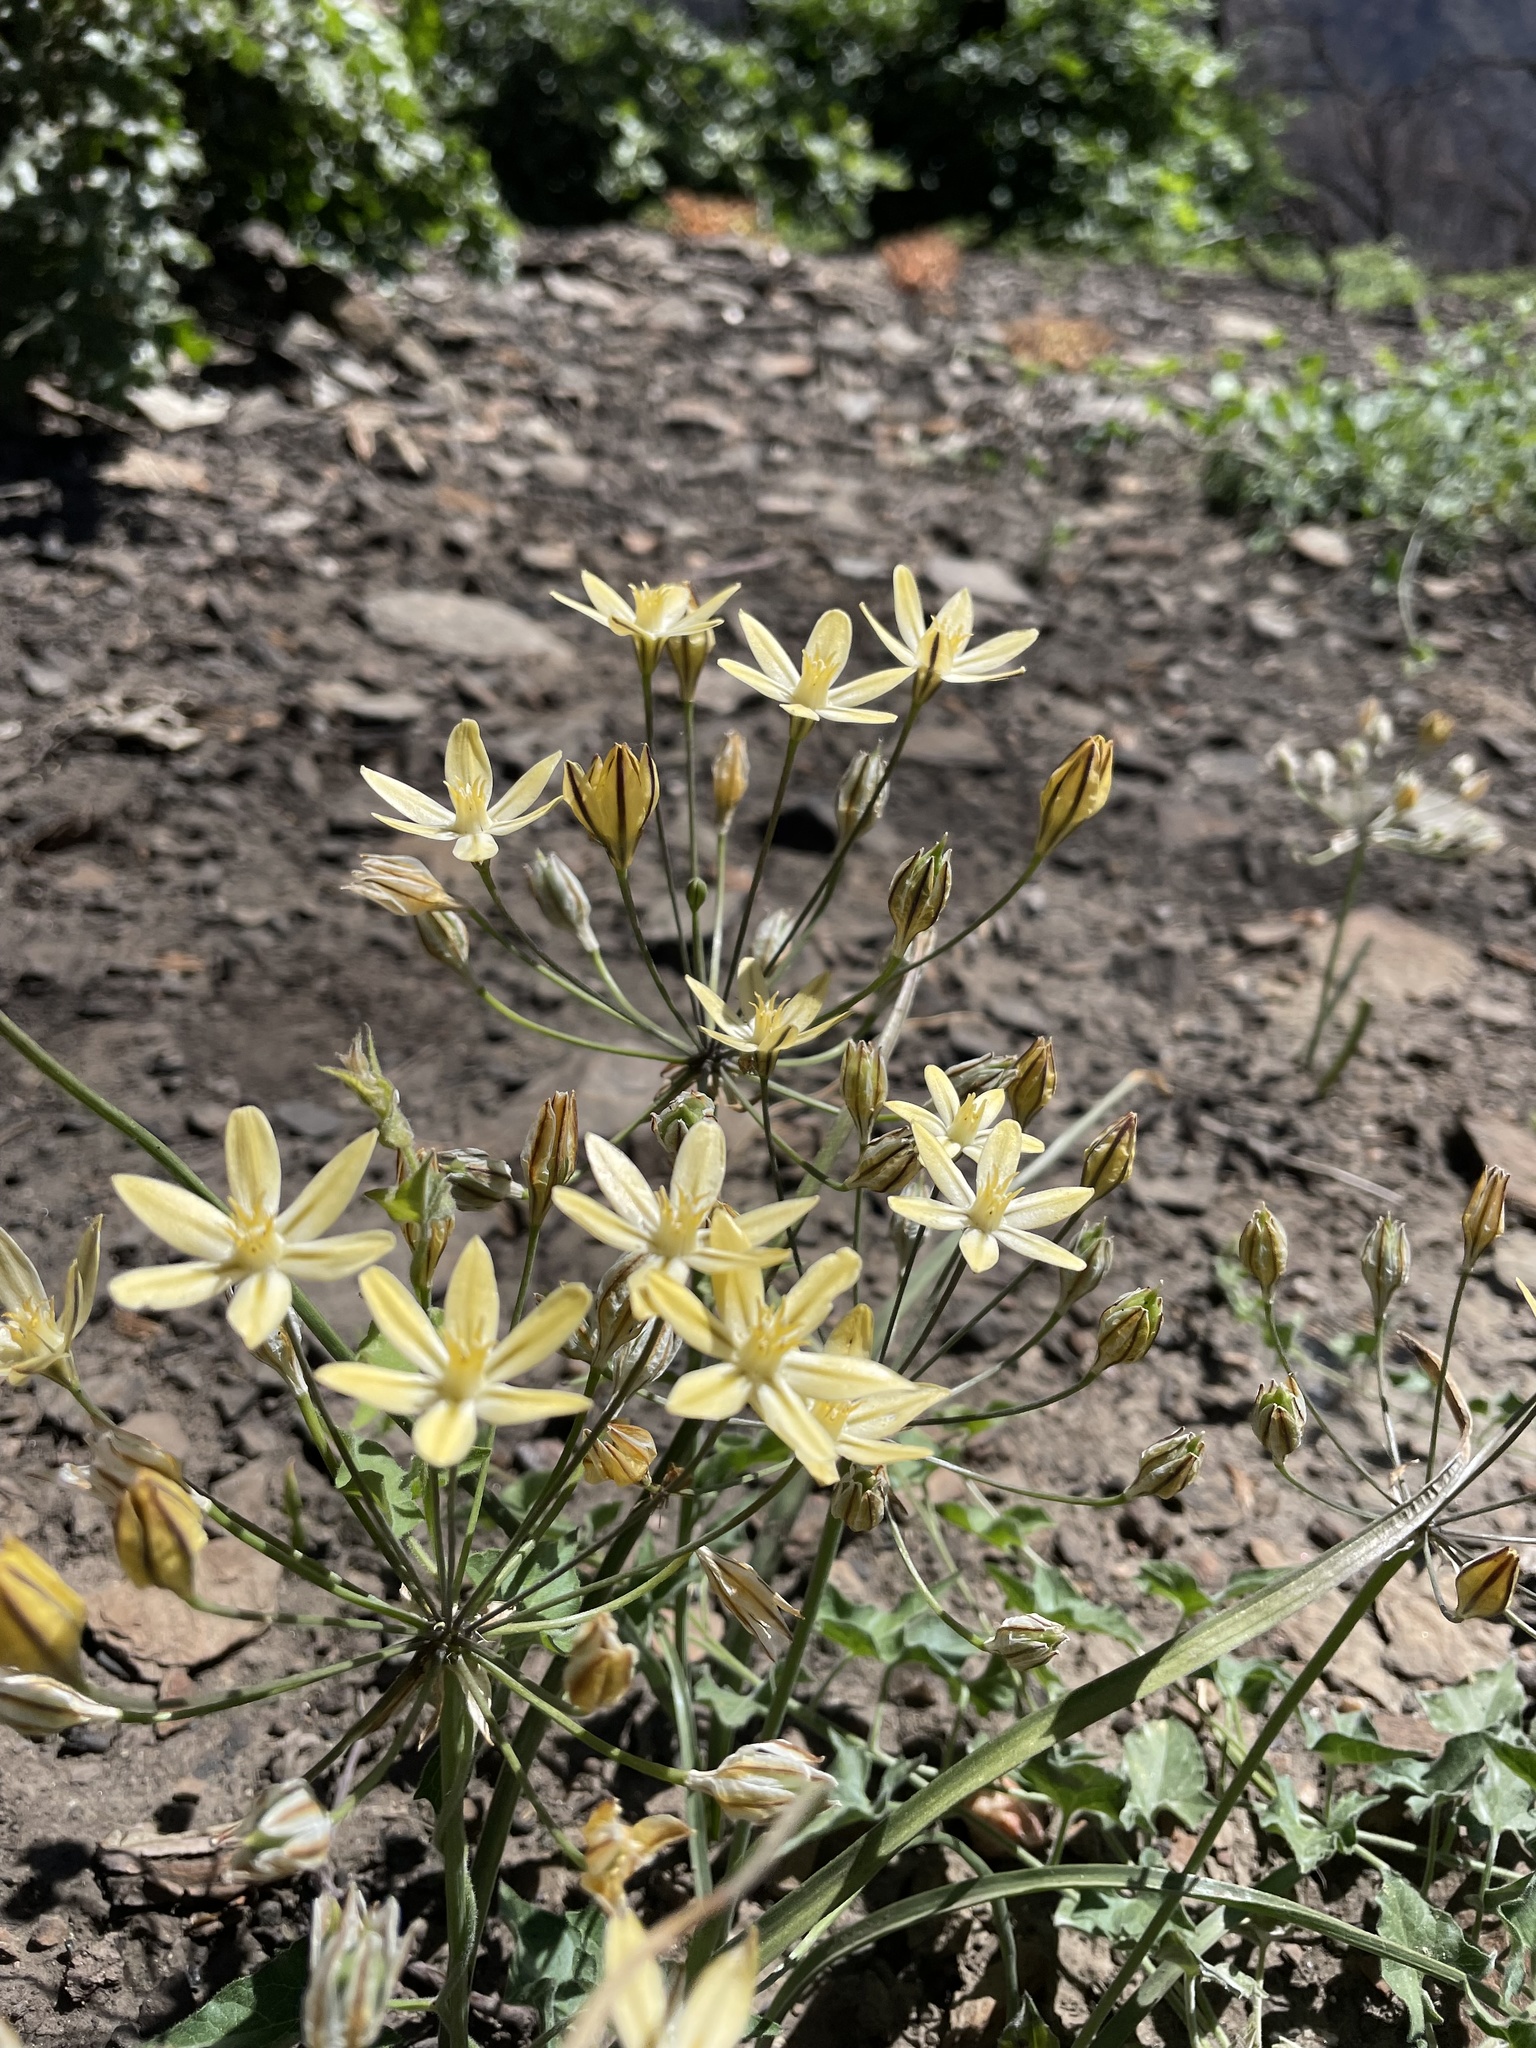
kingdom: Plantae
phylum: Tracheophyta
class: Liliopsida
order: Asparagales
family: Asparagaceae
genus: Triteleia
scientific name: Triteleia ixioides
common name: Yellow-brodiaea
